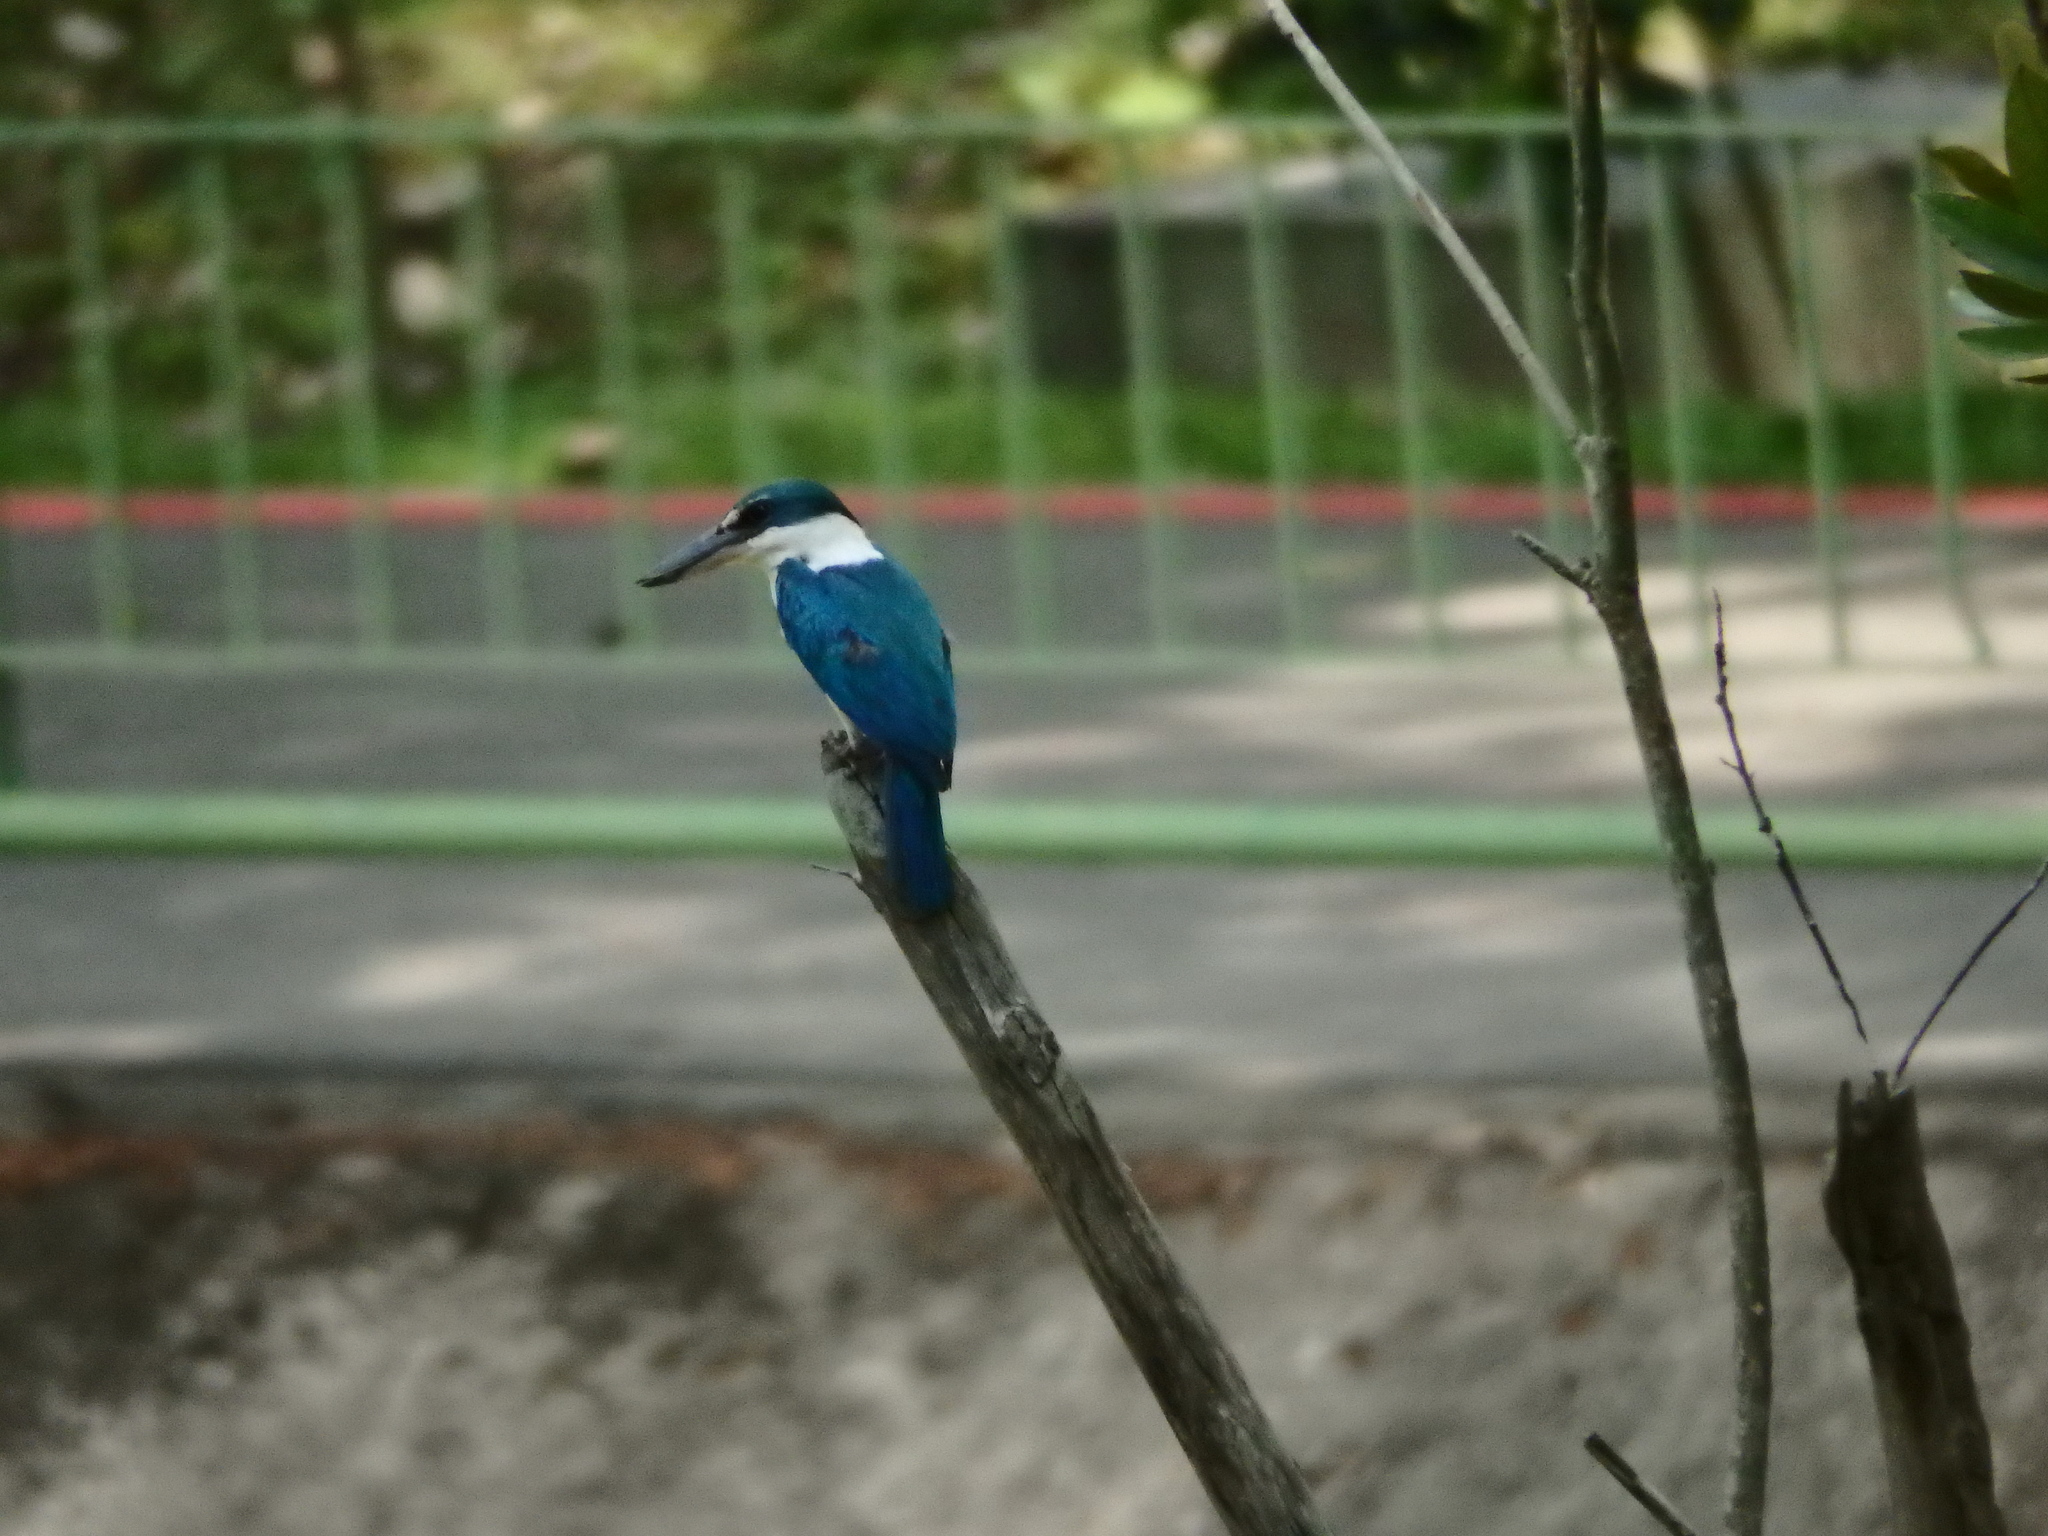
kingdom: Animalia
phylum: Chordata
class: Aves
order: Coraciiformes
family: Alcedinidae
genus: Todiramphus
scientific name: Todiramphus chloris
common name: Collared kingfisher
